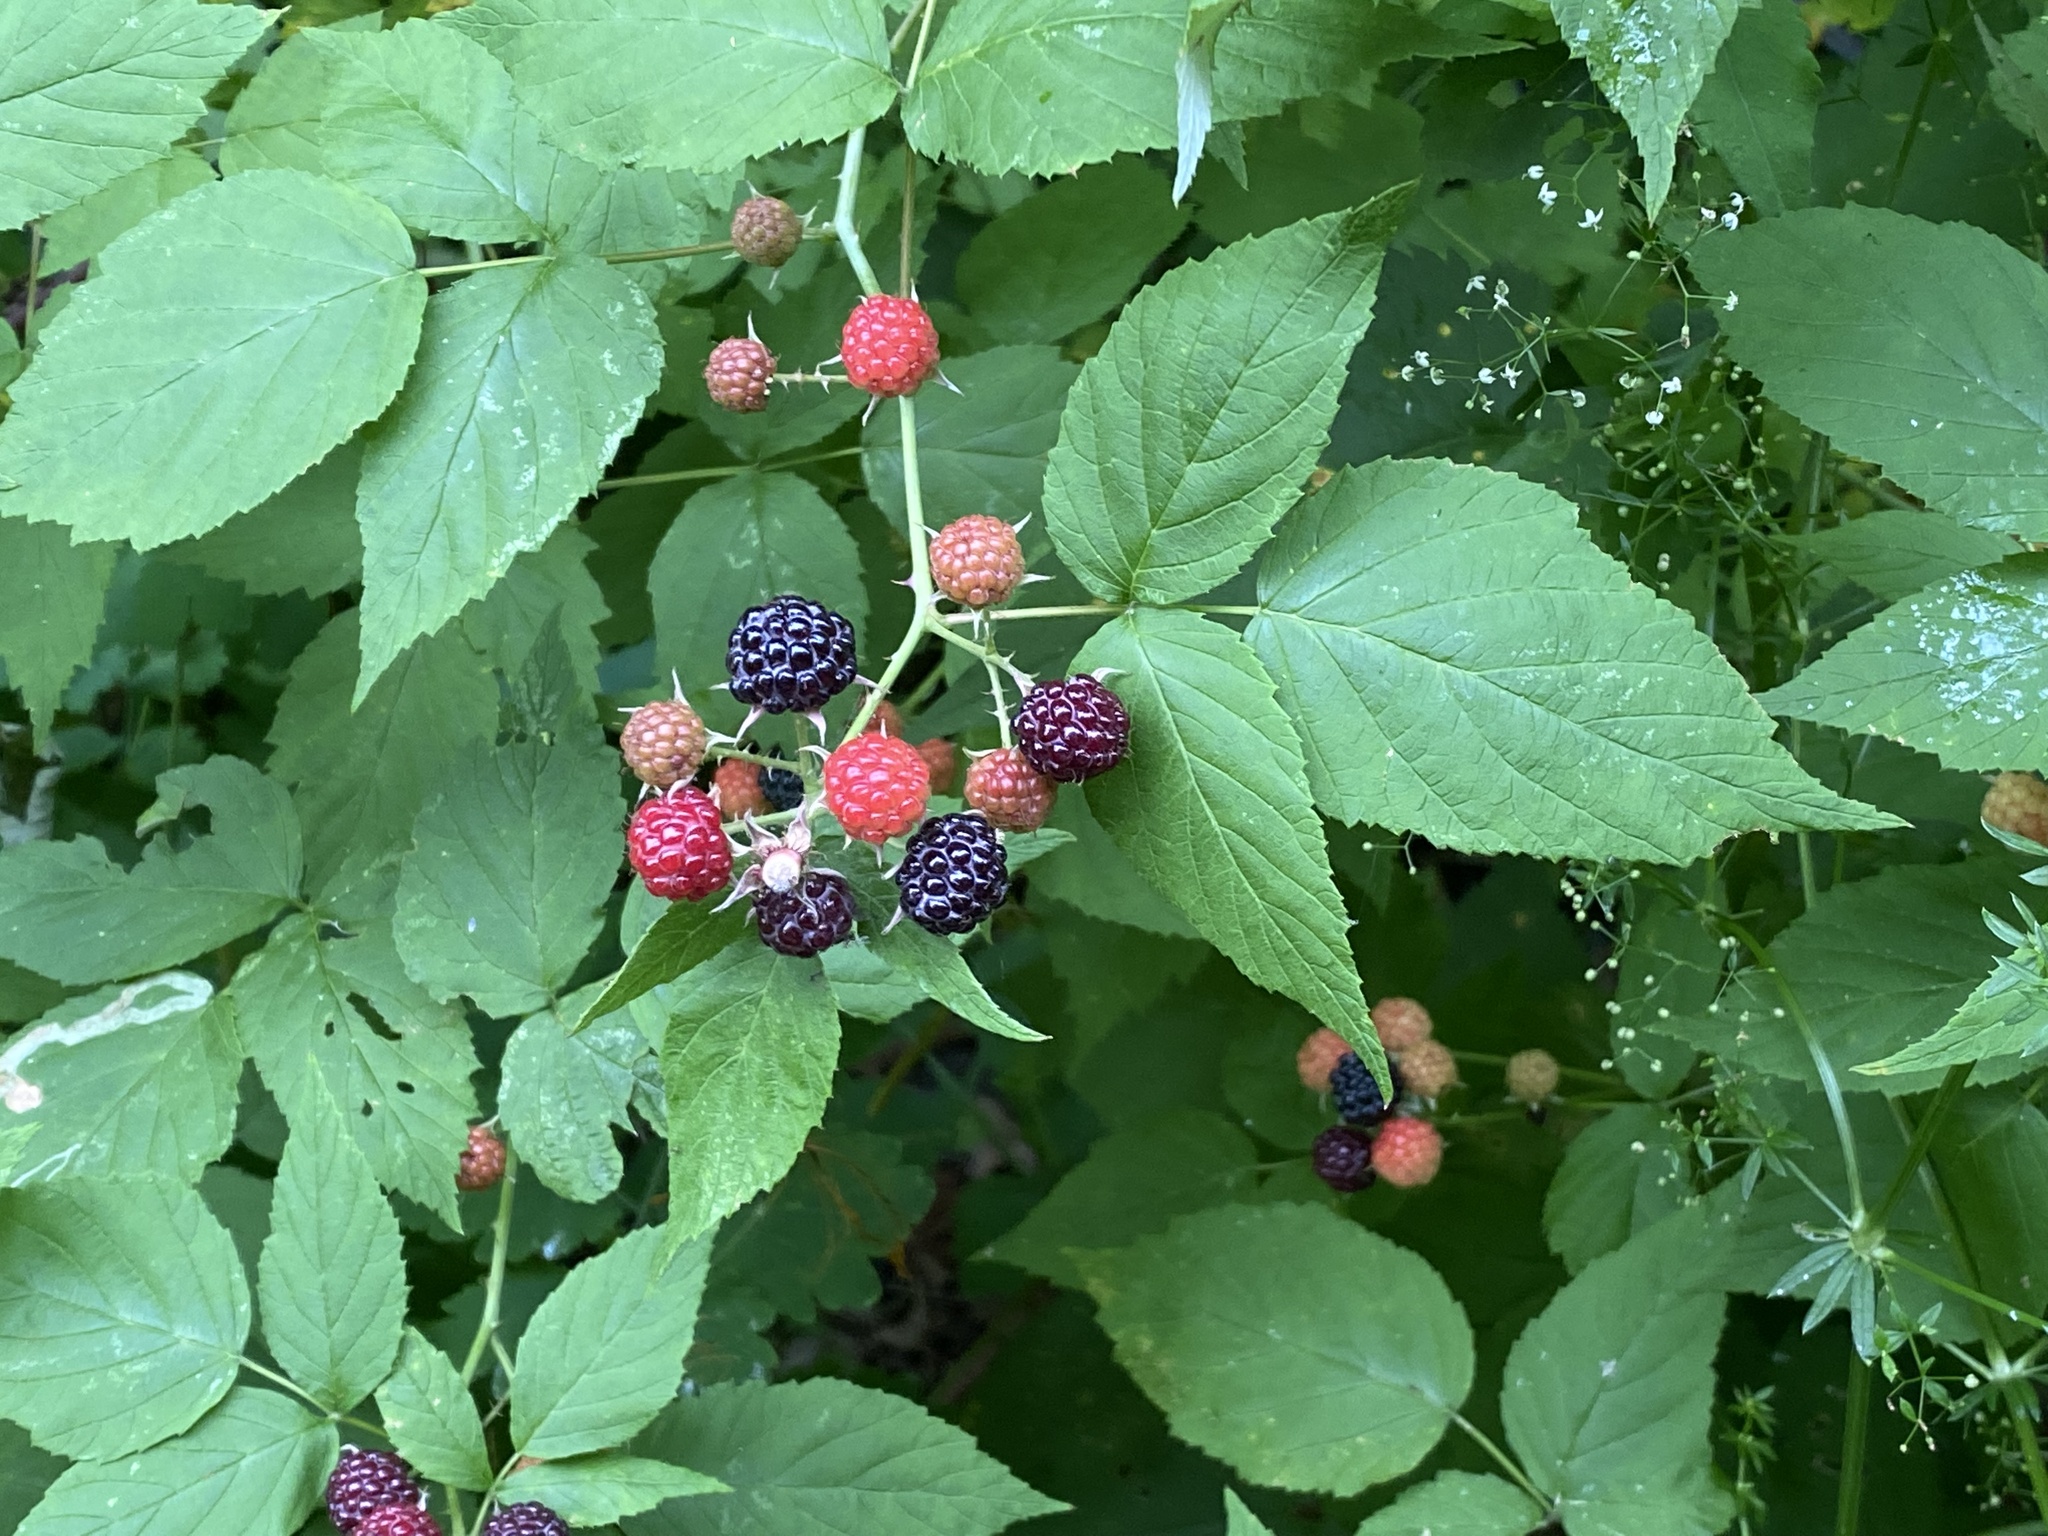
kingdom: Plantae
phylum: Tracheophyta
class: Magnoliopsida
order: Rosales
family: Rosaceae
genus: Rubus
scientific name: Rubus occidentalis
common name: Black raspberry
